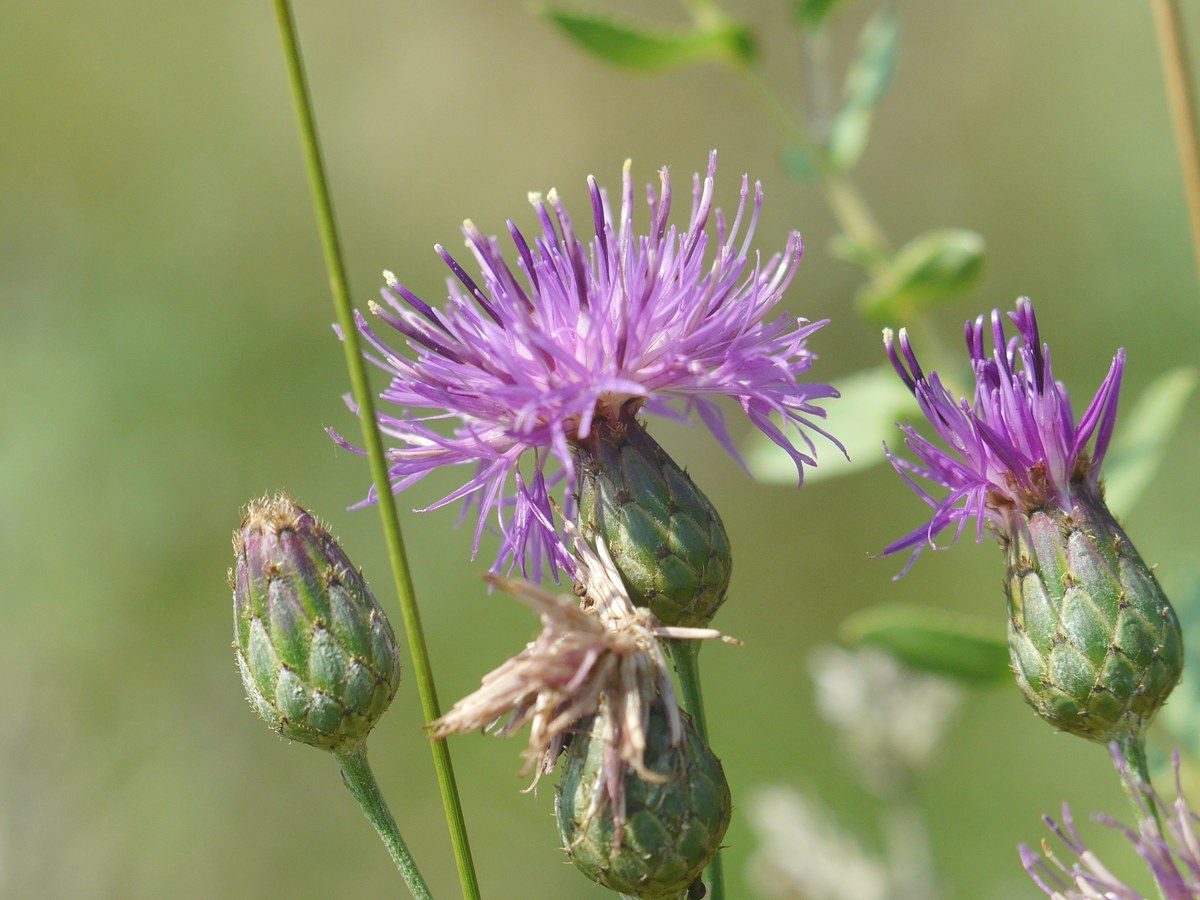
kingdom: Plantae
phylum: Tracheophyta
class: Magnoliopsida
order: Asterales
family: Asteraceae
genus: Centaurea
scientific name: Centaurea adpressa
